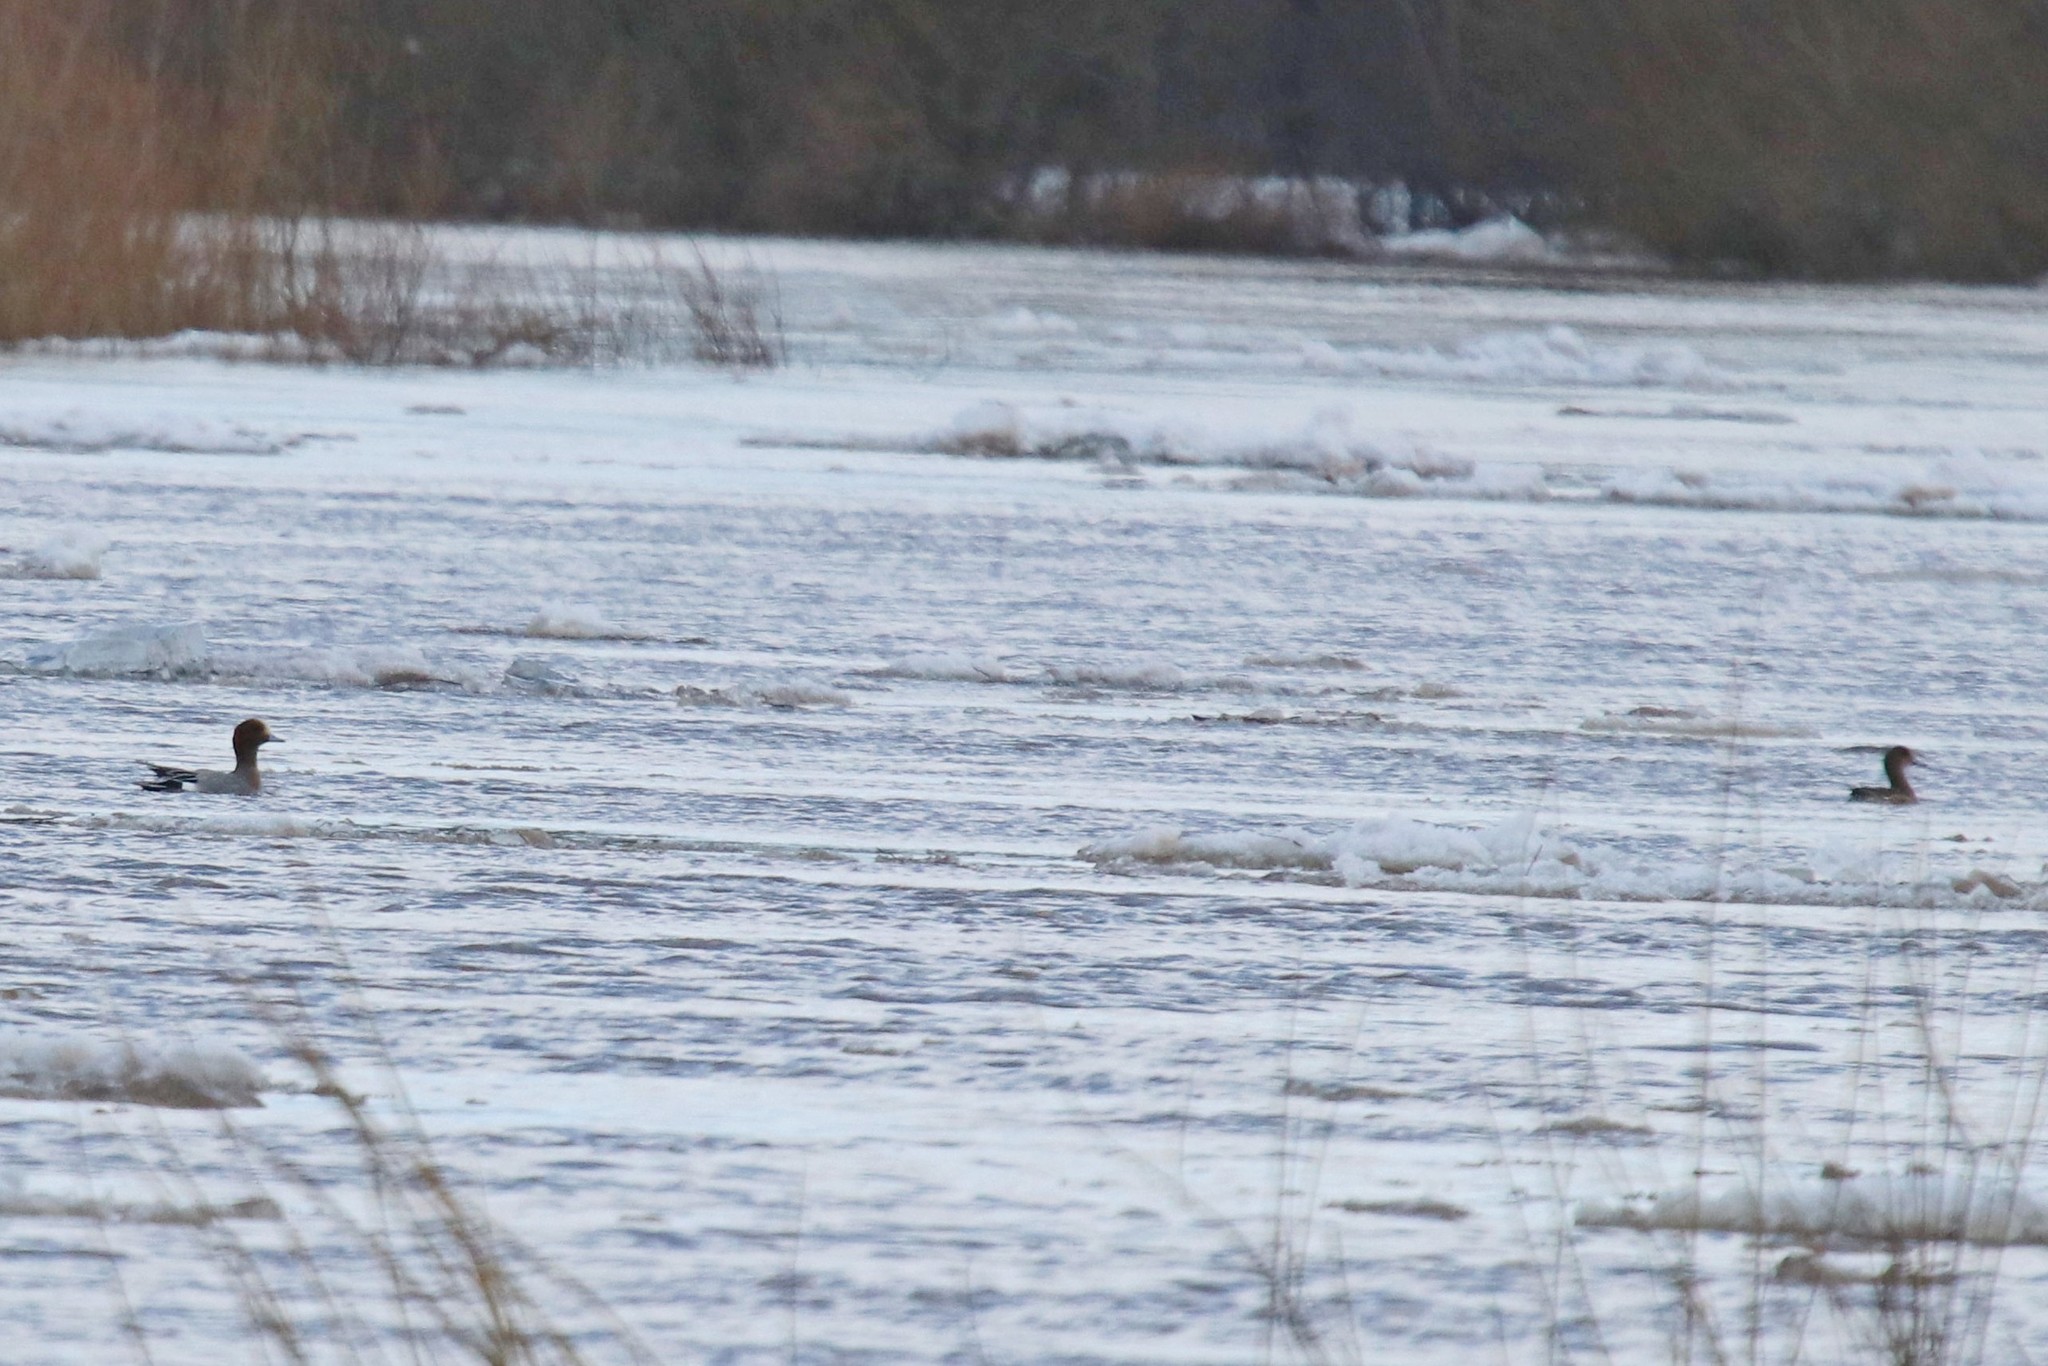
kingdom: Animalia
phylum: Chordata
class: Aves
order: Anseriformes
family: Anatidae
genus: Mareca
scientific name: Mareca penelope
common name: Eurasian wigeon
